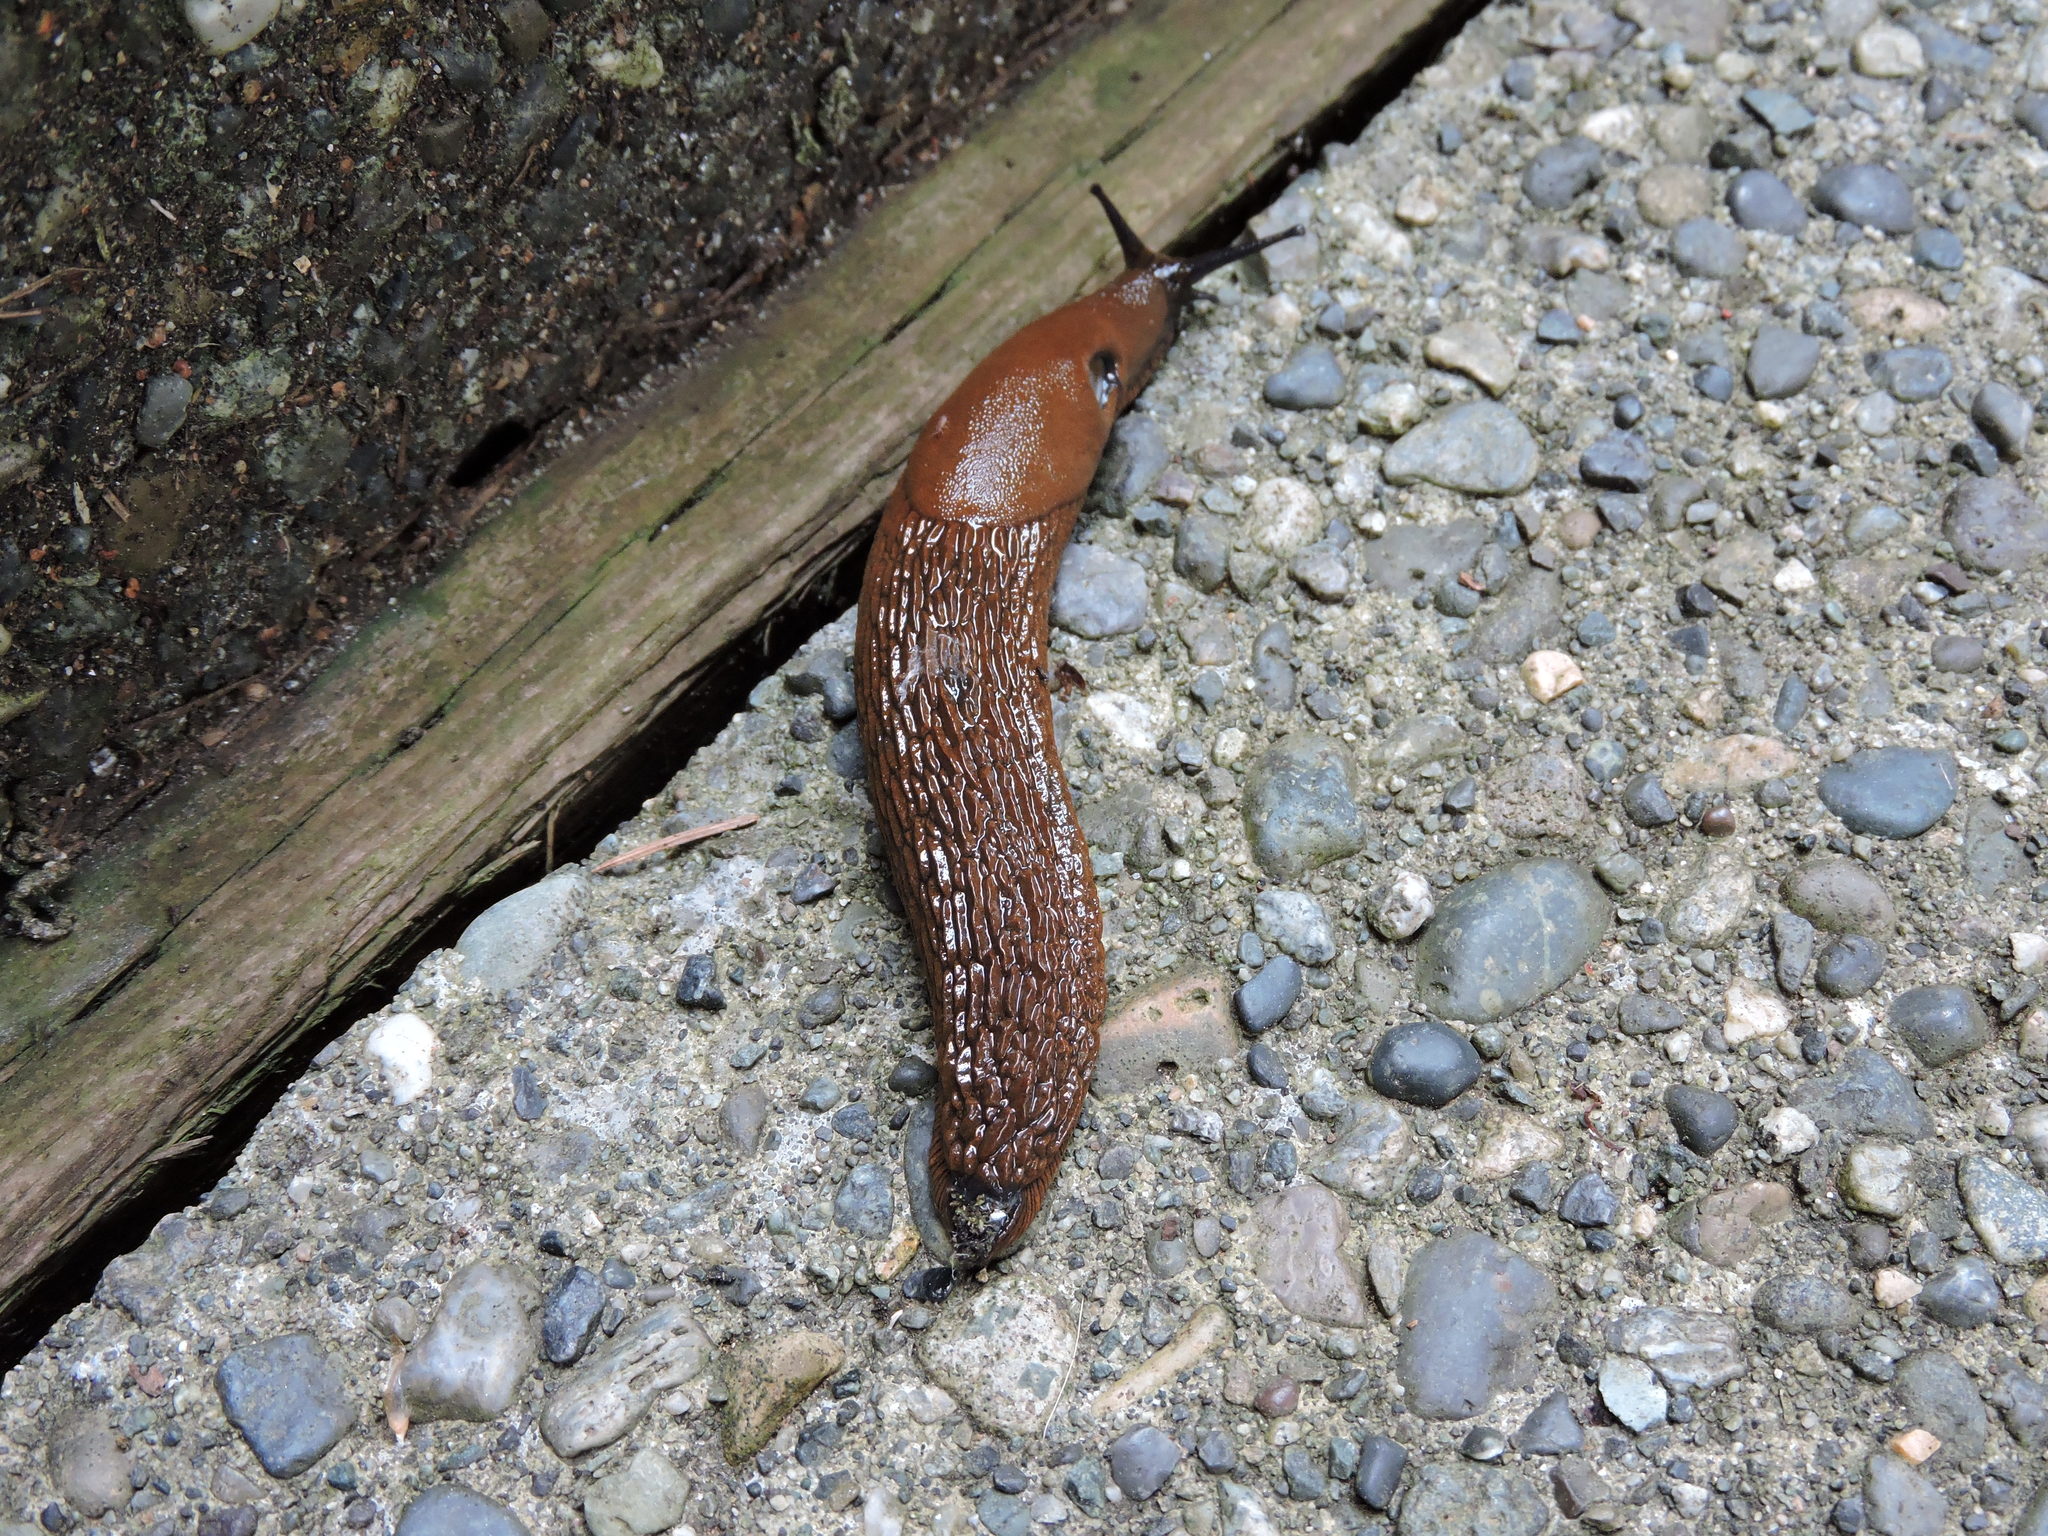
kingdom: Animalia
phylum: Mollusca
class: Gastropoda
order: Stylommatophora
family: Arionidae
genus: Arion
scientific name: Arion rufus
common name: Chocolate arion
